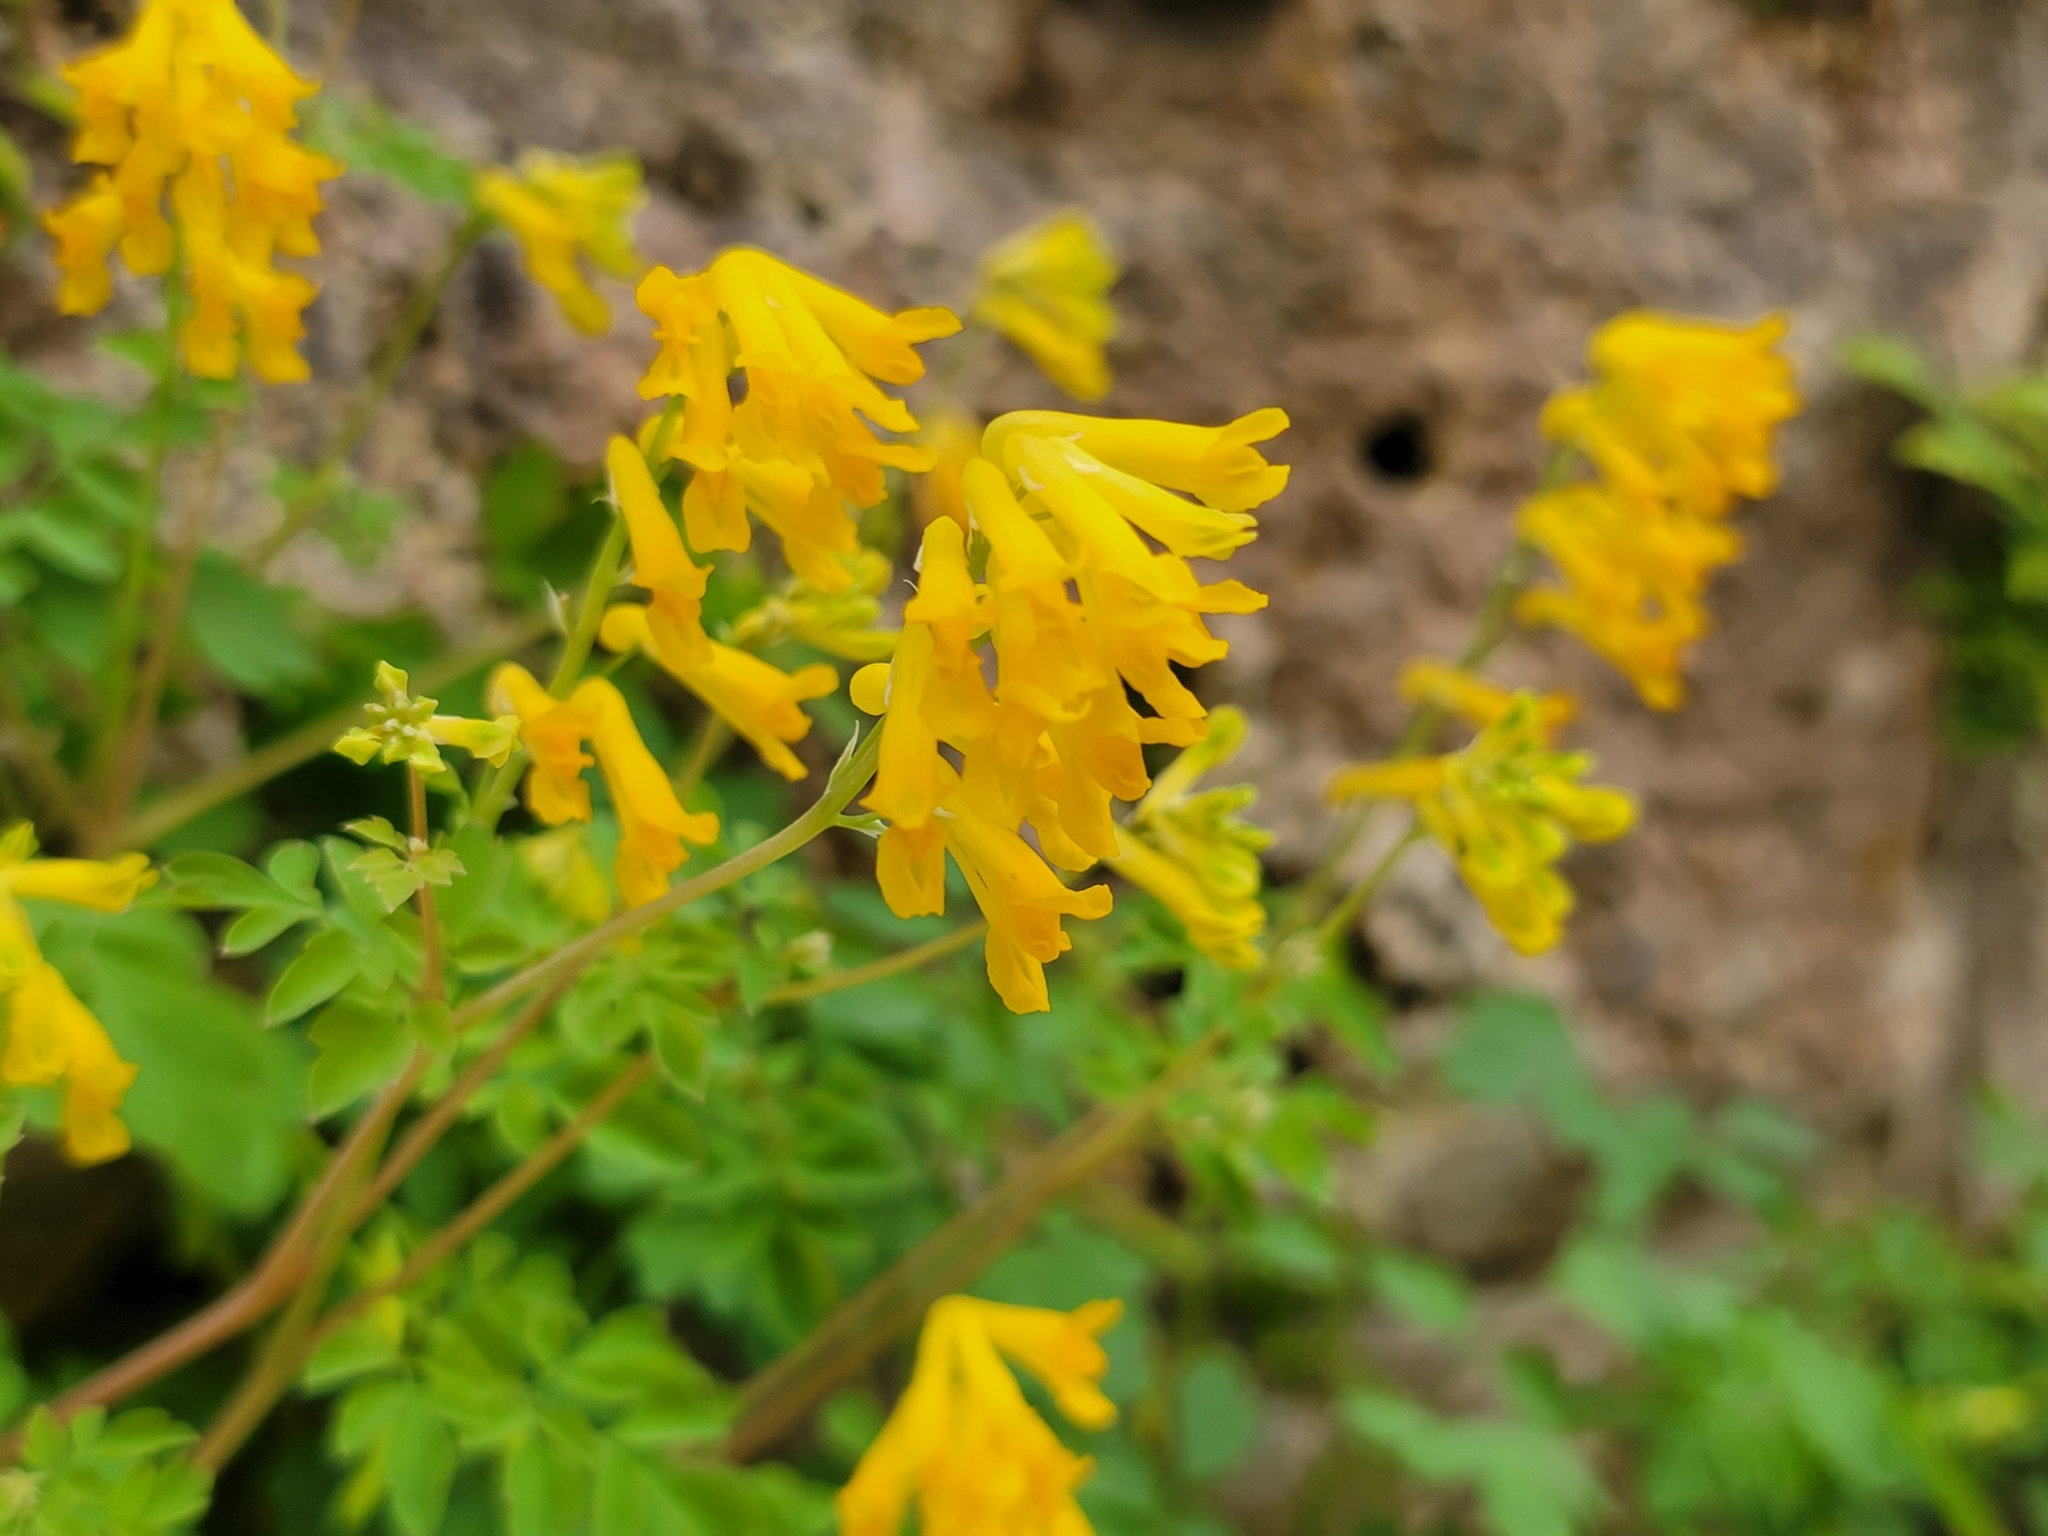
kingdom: Plantae
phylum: Tracheophyta
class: Magnoliopsida
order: Ranunculales
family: Papaveraceae
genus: Pseudofumaria
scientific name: Pseudofumaria lutea
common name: Yellow corydalis
